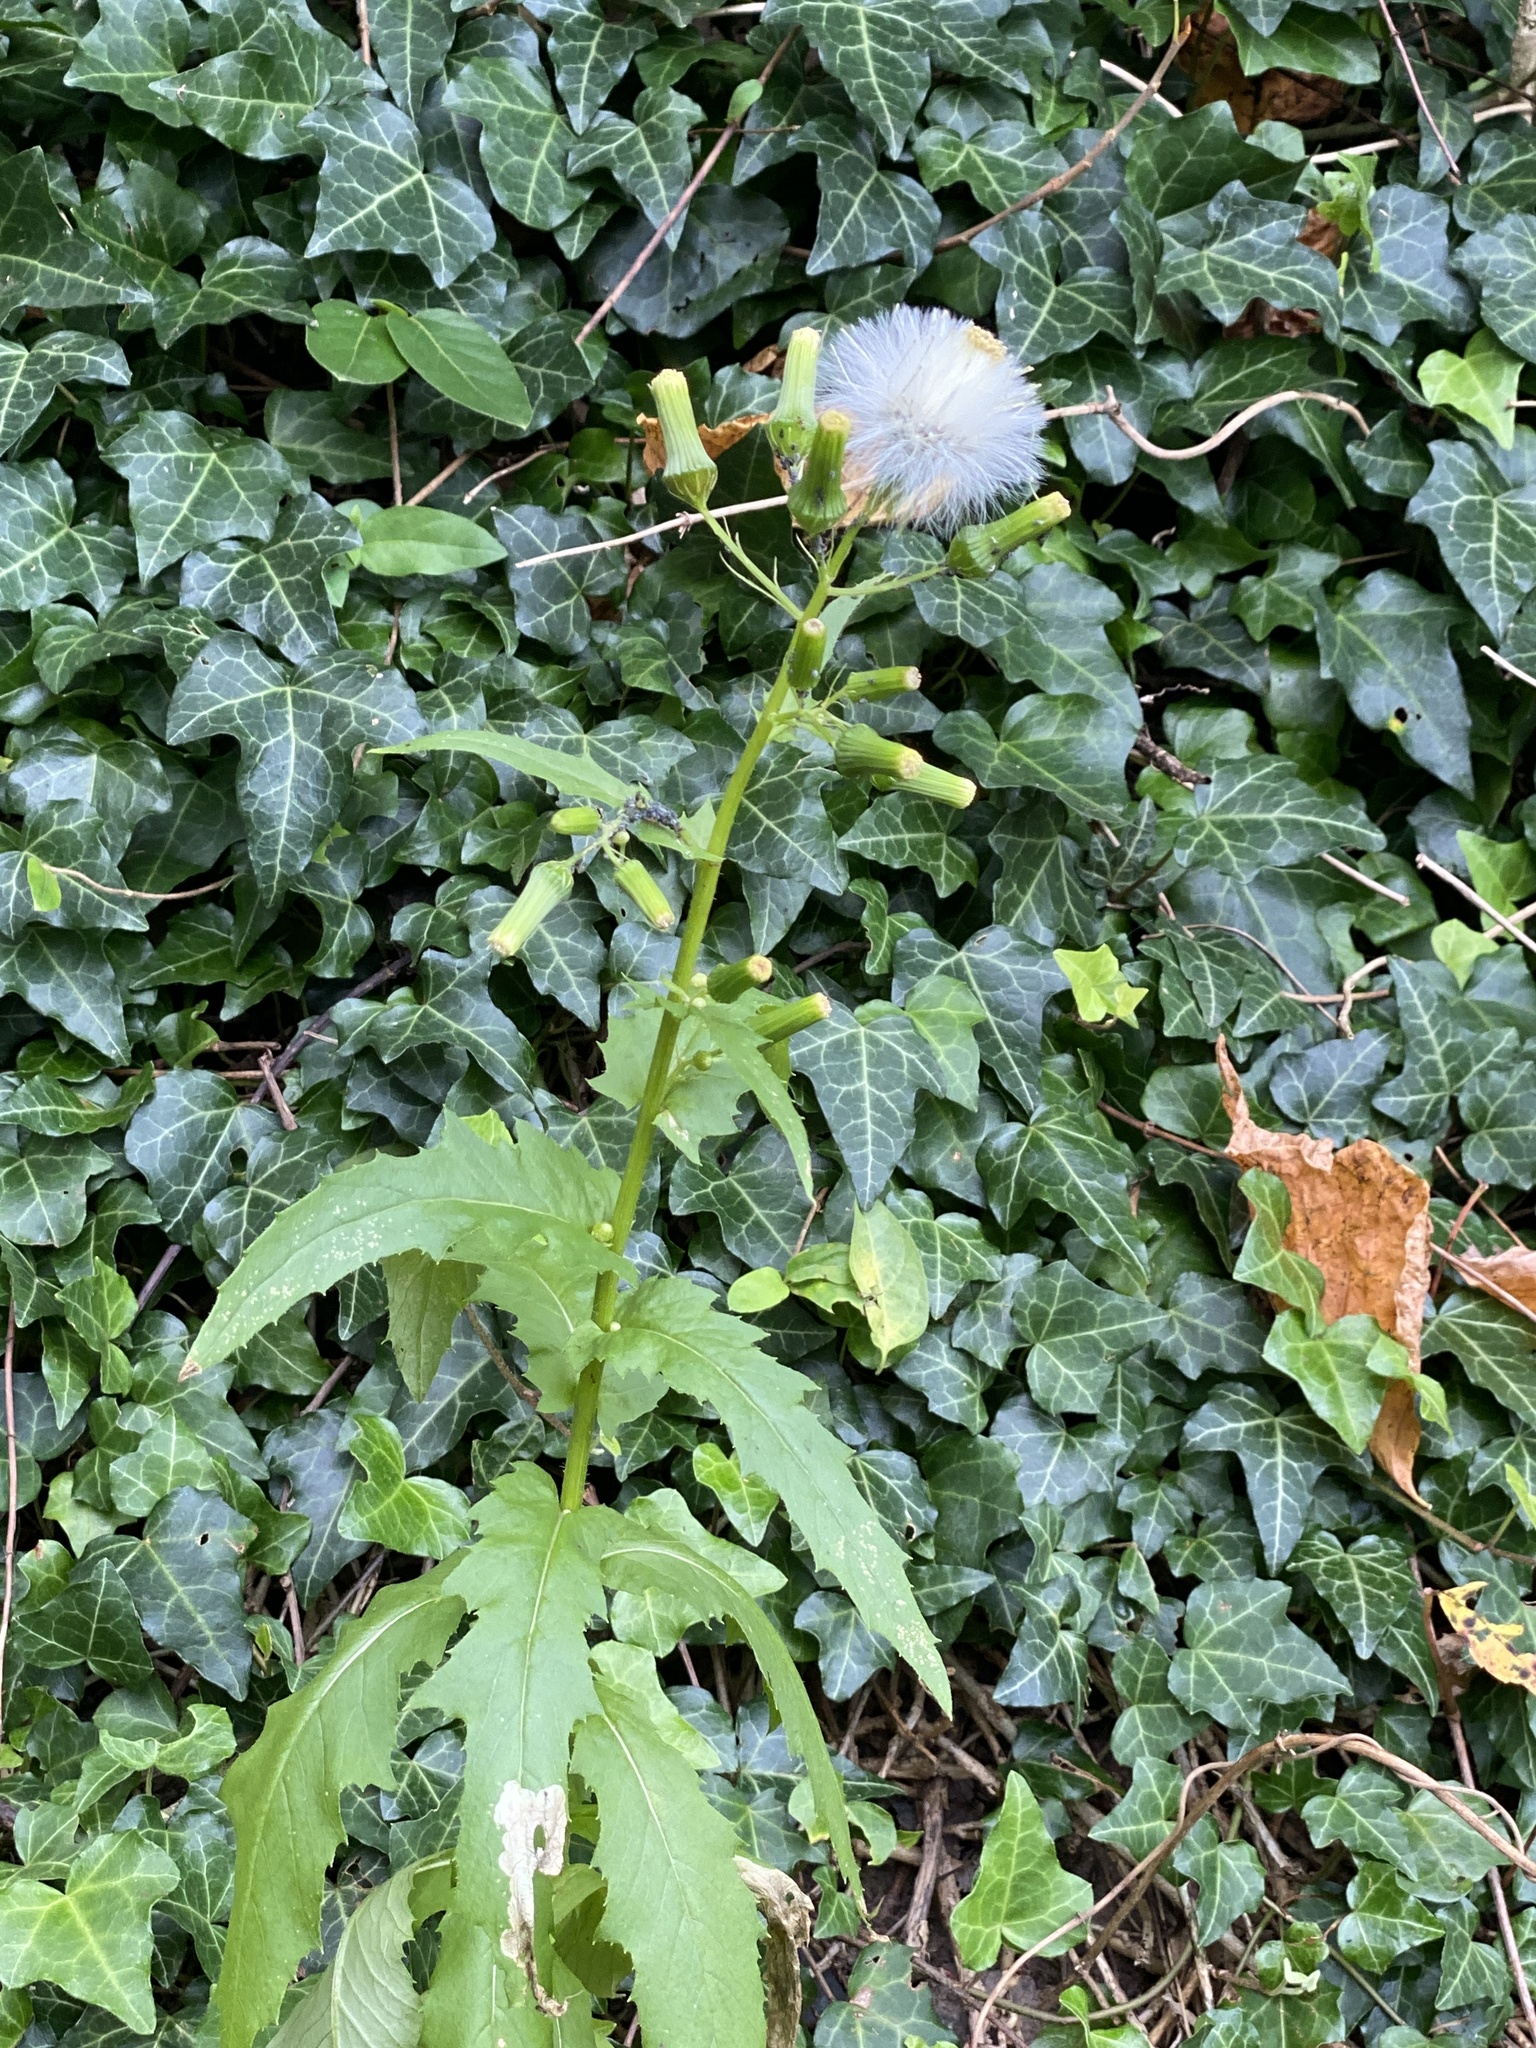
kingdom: Plantae
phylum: Tracheophyta
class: Magnoliopsida
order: Asterales
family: Asteraceae
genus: Erechtites
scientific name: Erechtites hieraciifolius
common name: American burnweed
